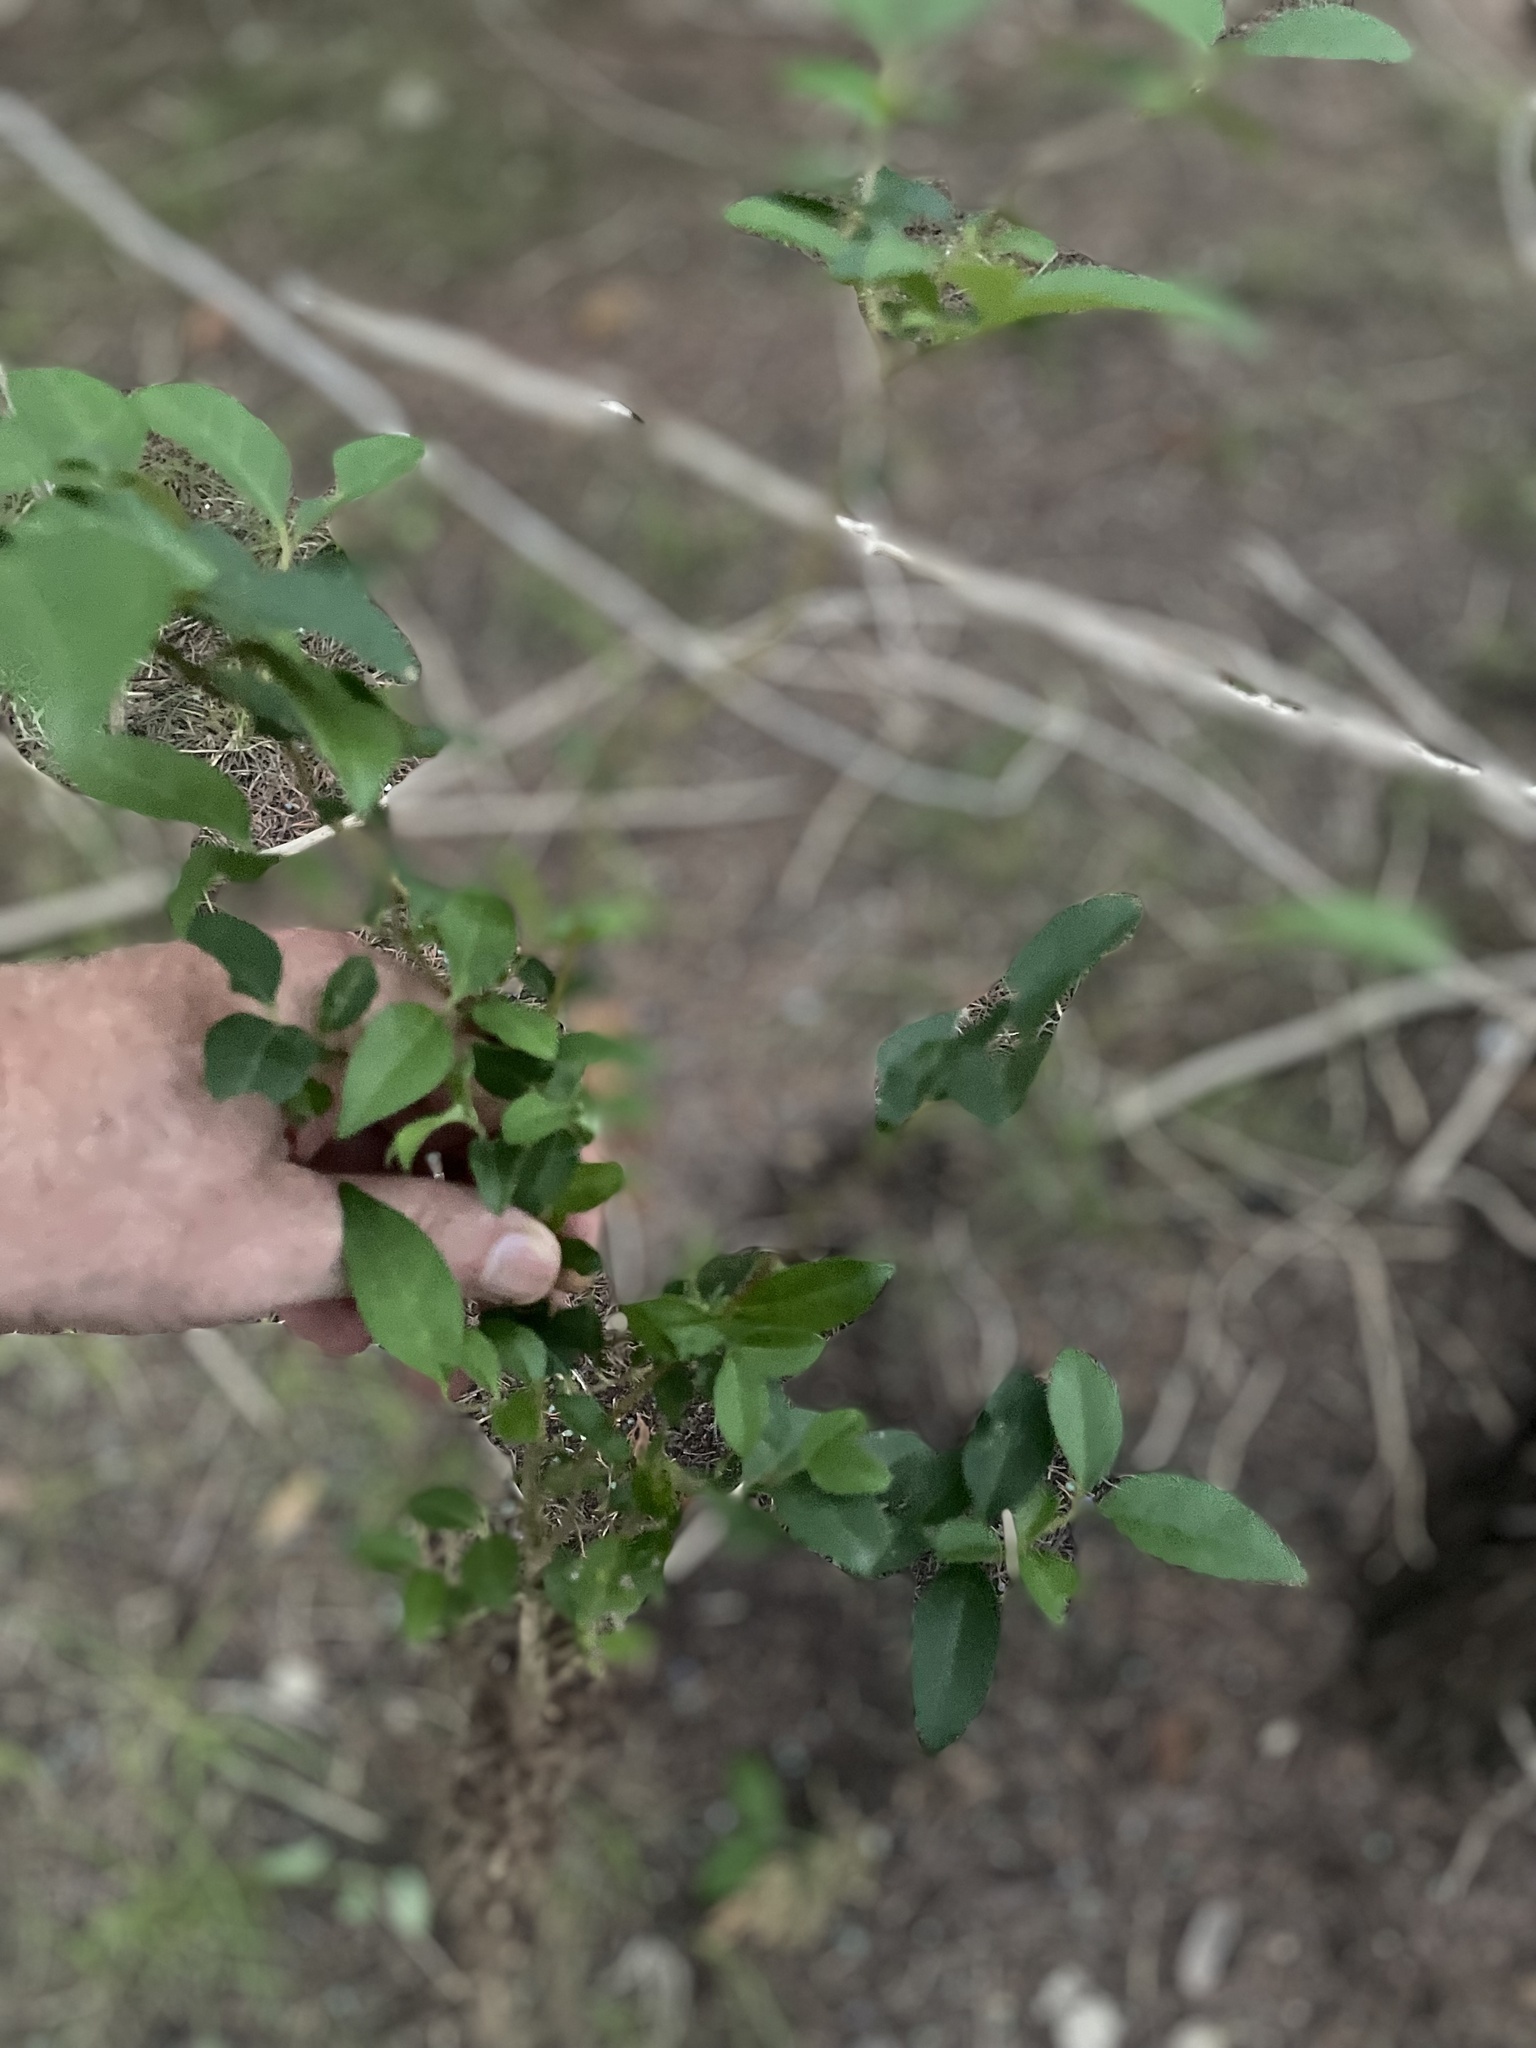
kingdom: Plantae
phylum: Tracheophyta
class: Magnoliopsida
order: Lamiales
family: Oleaceae
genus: Ligustrum
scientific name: Ligustrum lucidum
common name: Glossy privet
